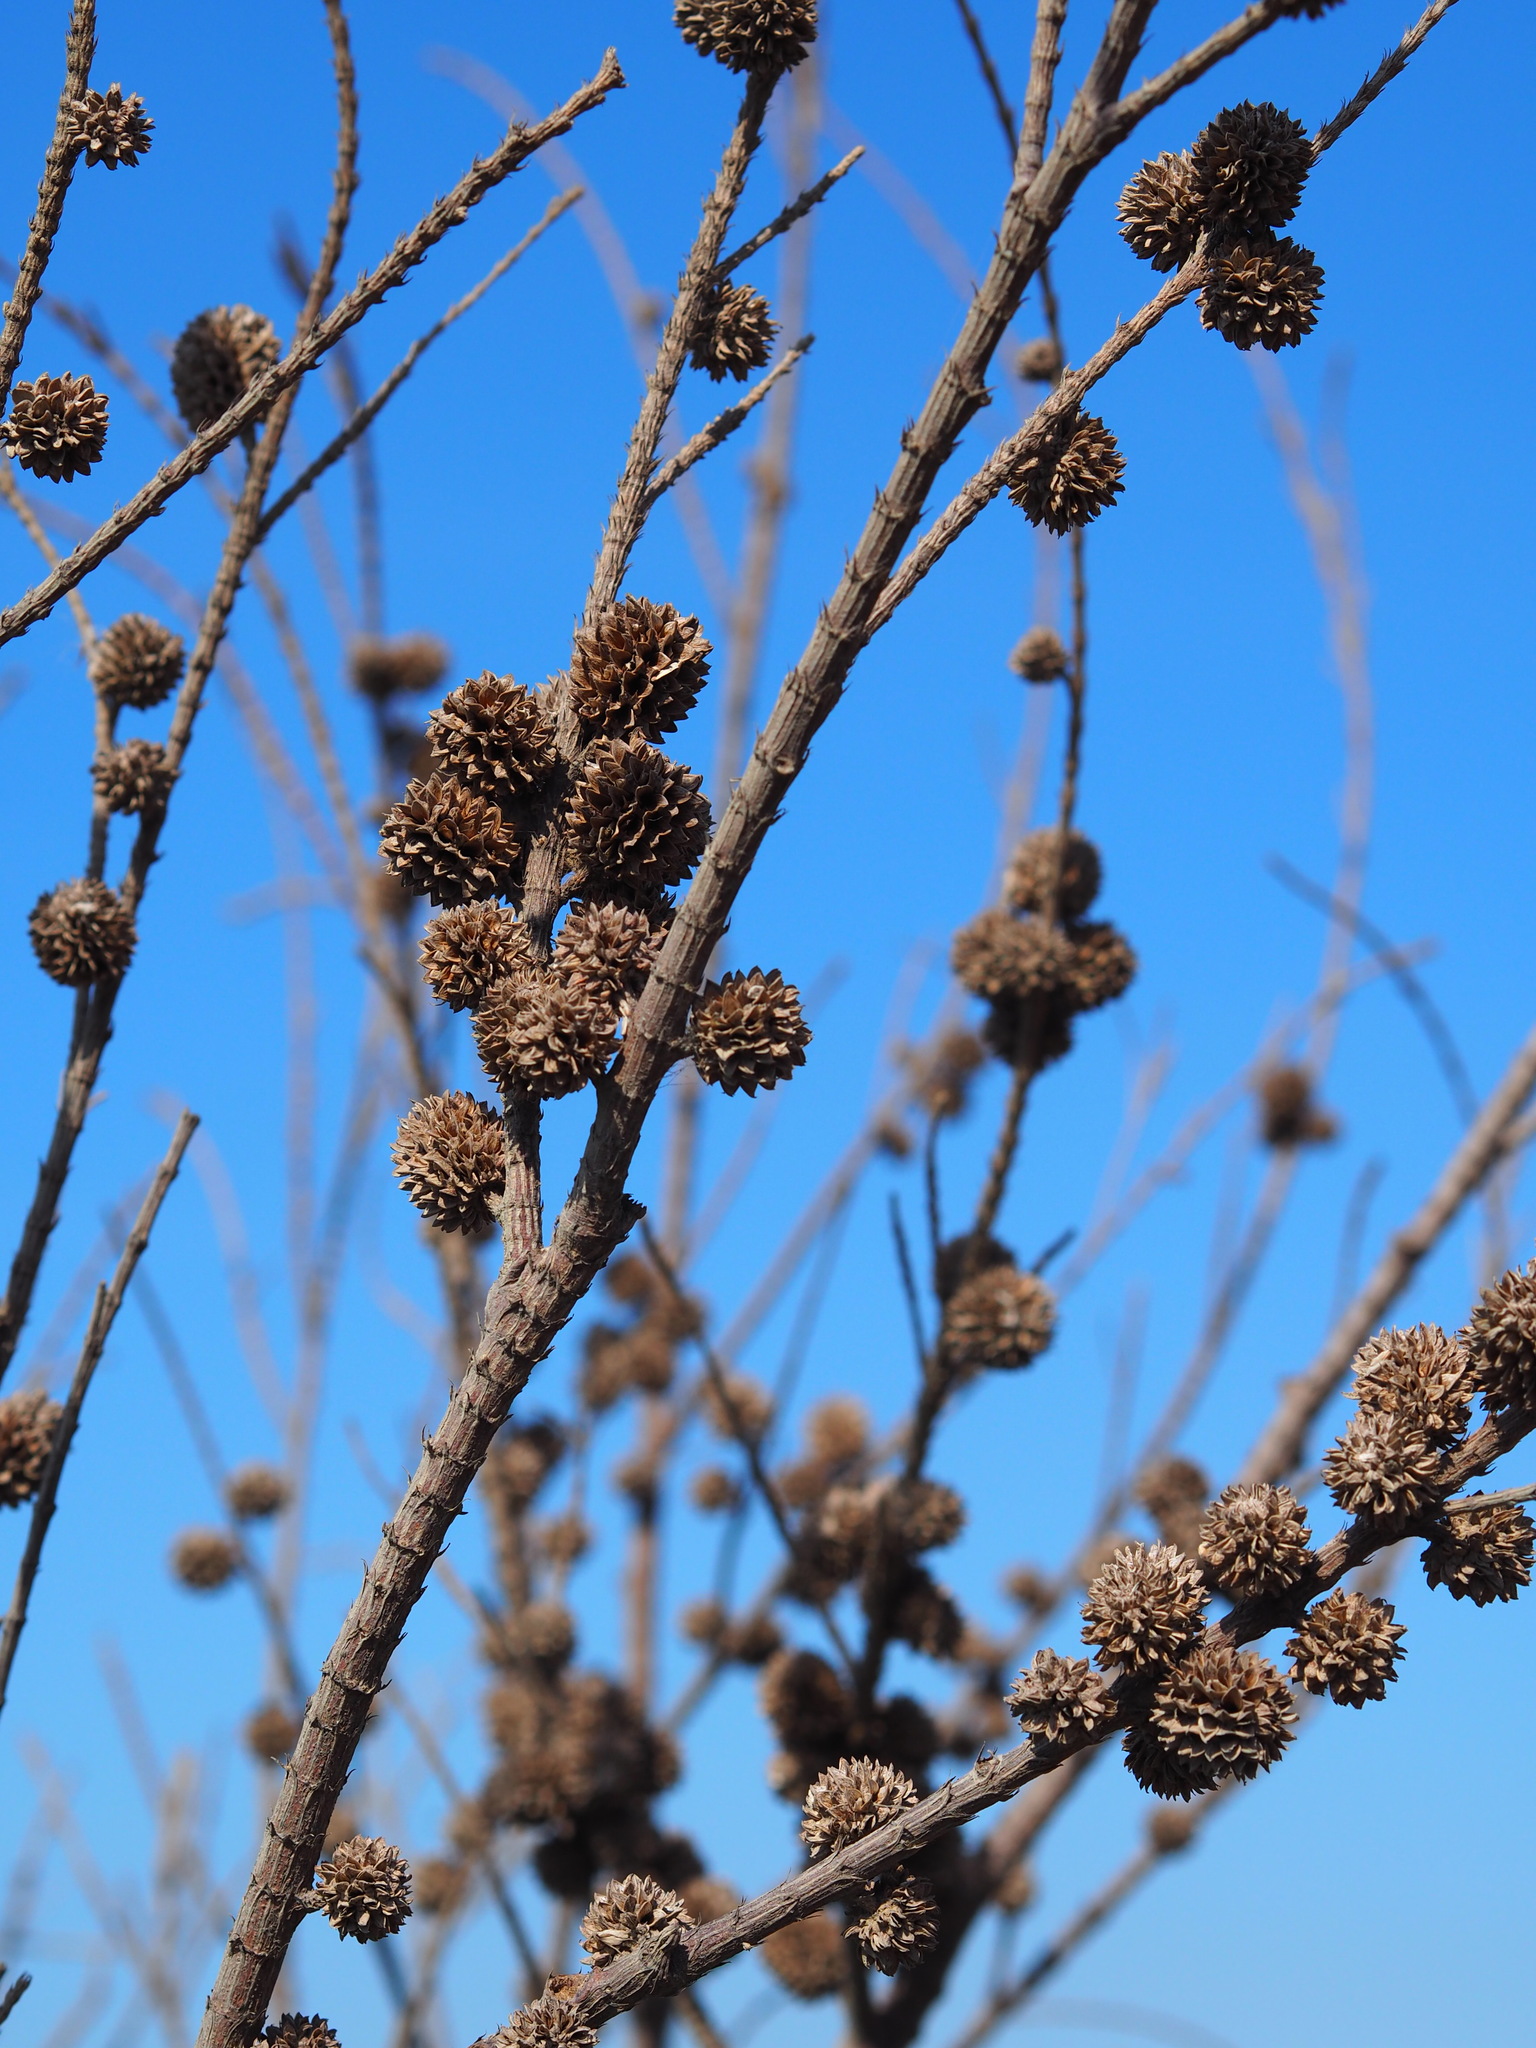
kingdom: Plantae
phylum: Tracheophyta
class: Magnoliopsida
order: Fagales
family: Casuarinaceae
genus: Casuarina
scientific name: Casuarina equisetifolia
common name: Beach sheoak
